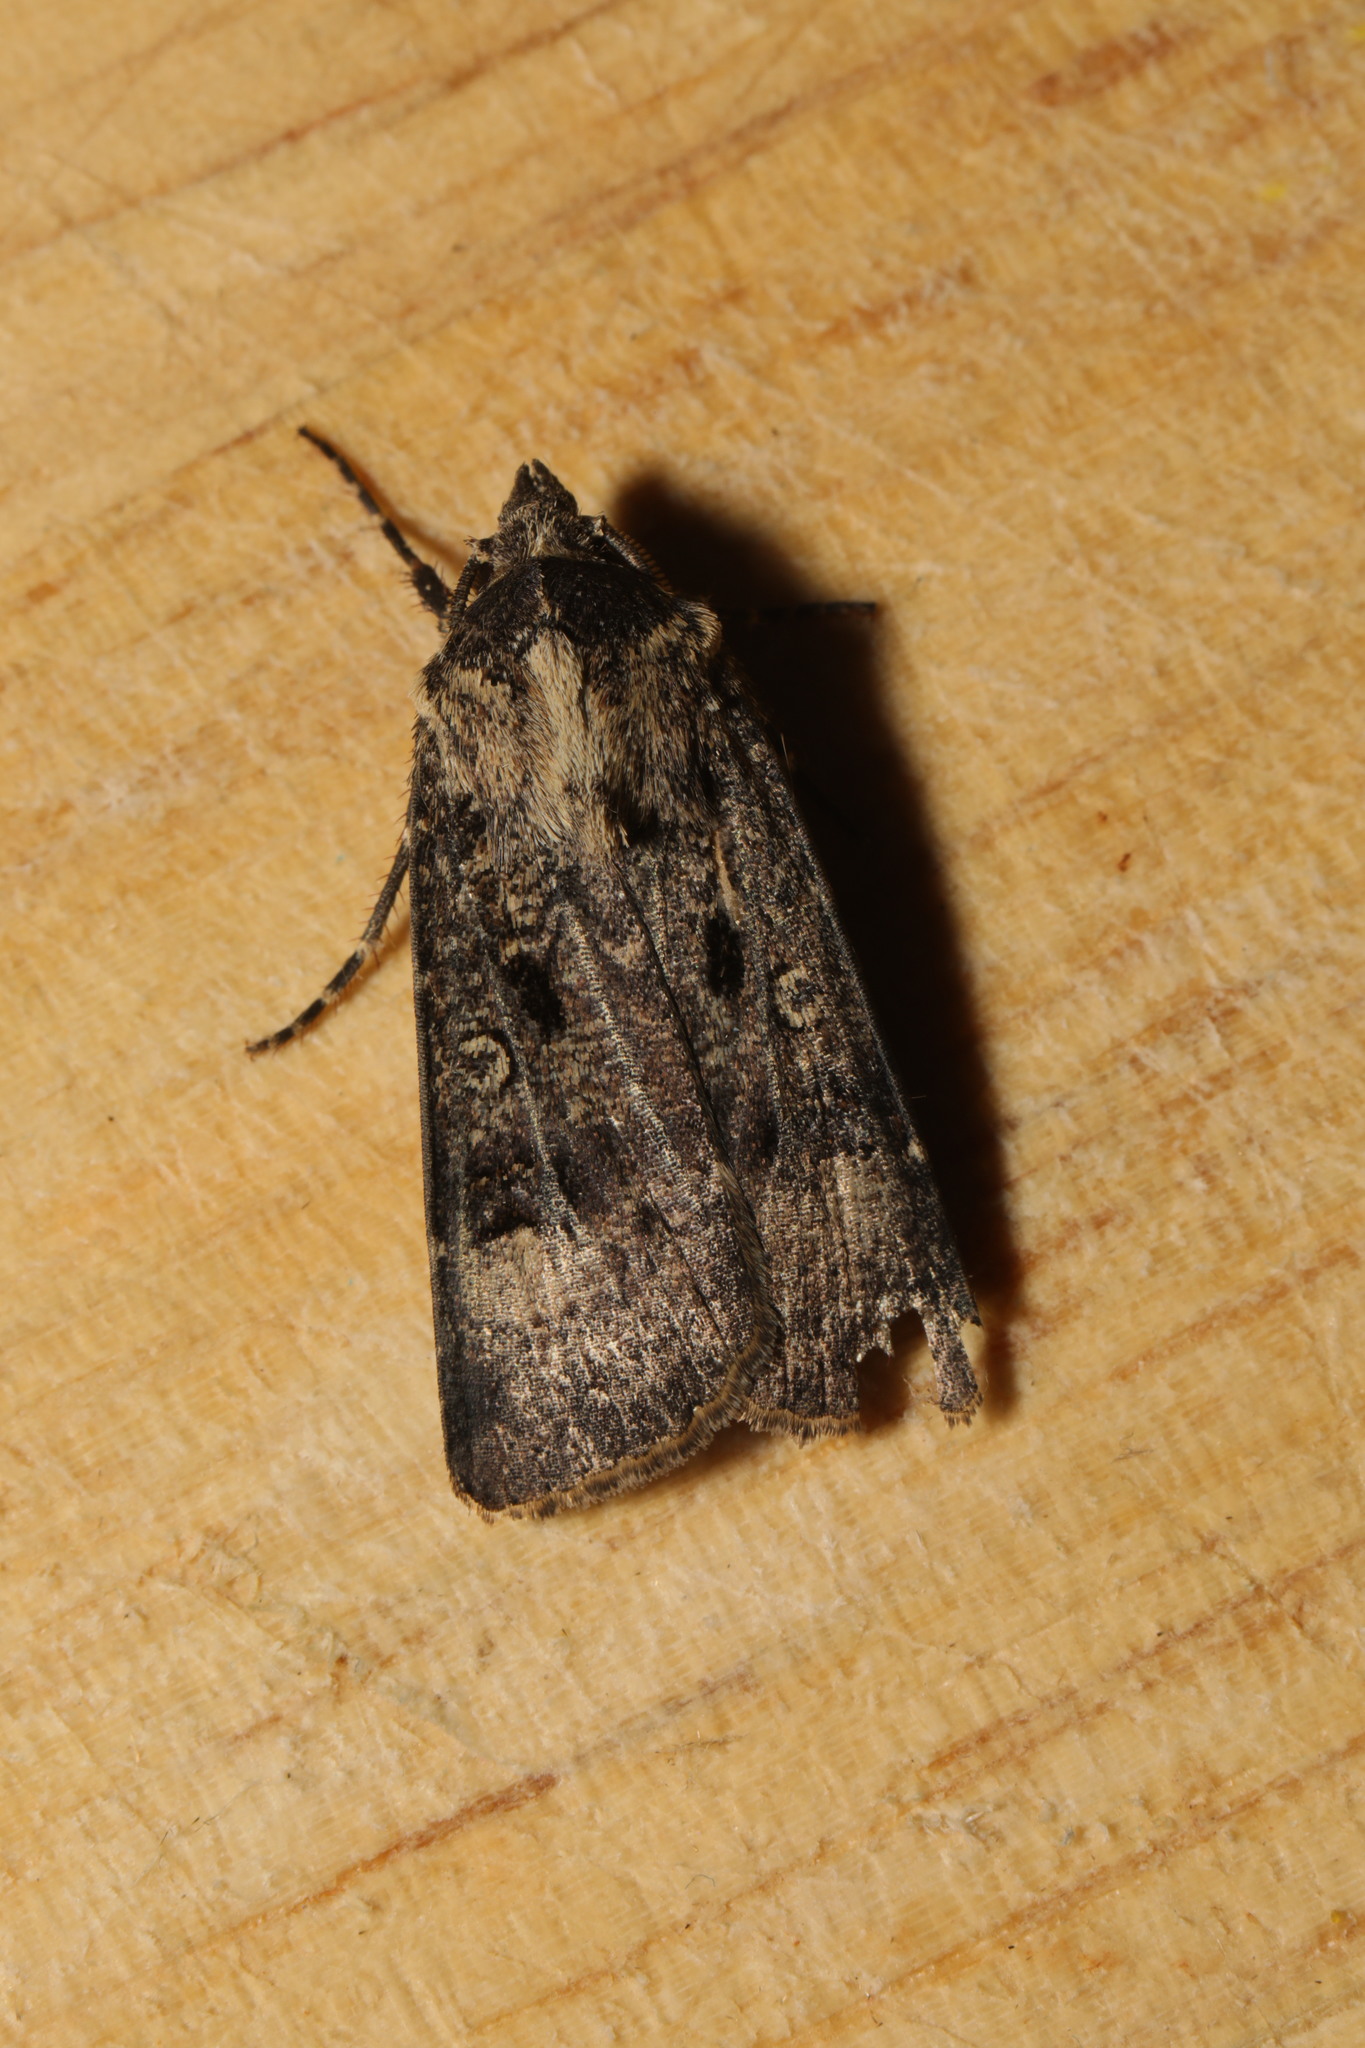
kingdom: Animalia
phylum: Arthropoda
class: Insecta
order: Lepidoptera
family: Noctuidae
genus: Agrotis
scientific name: Agrotis trux
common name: Crescent dart
